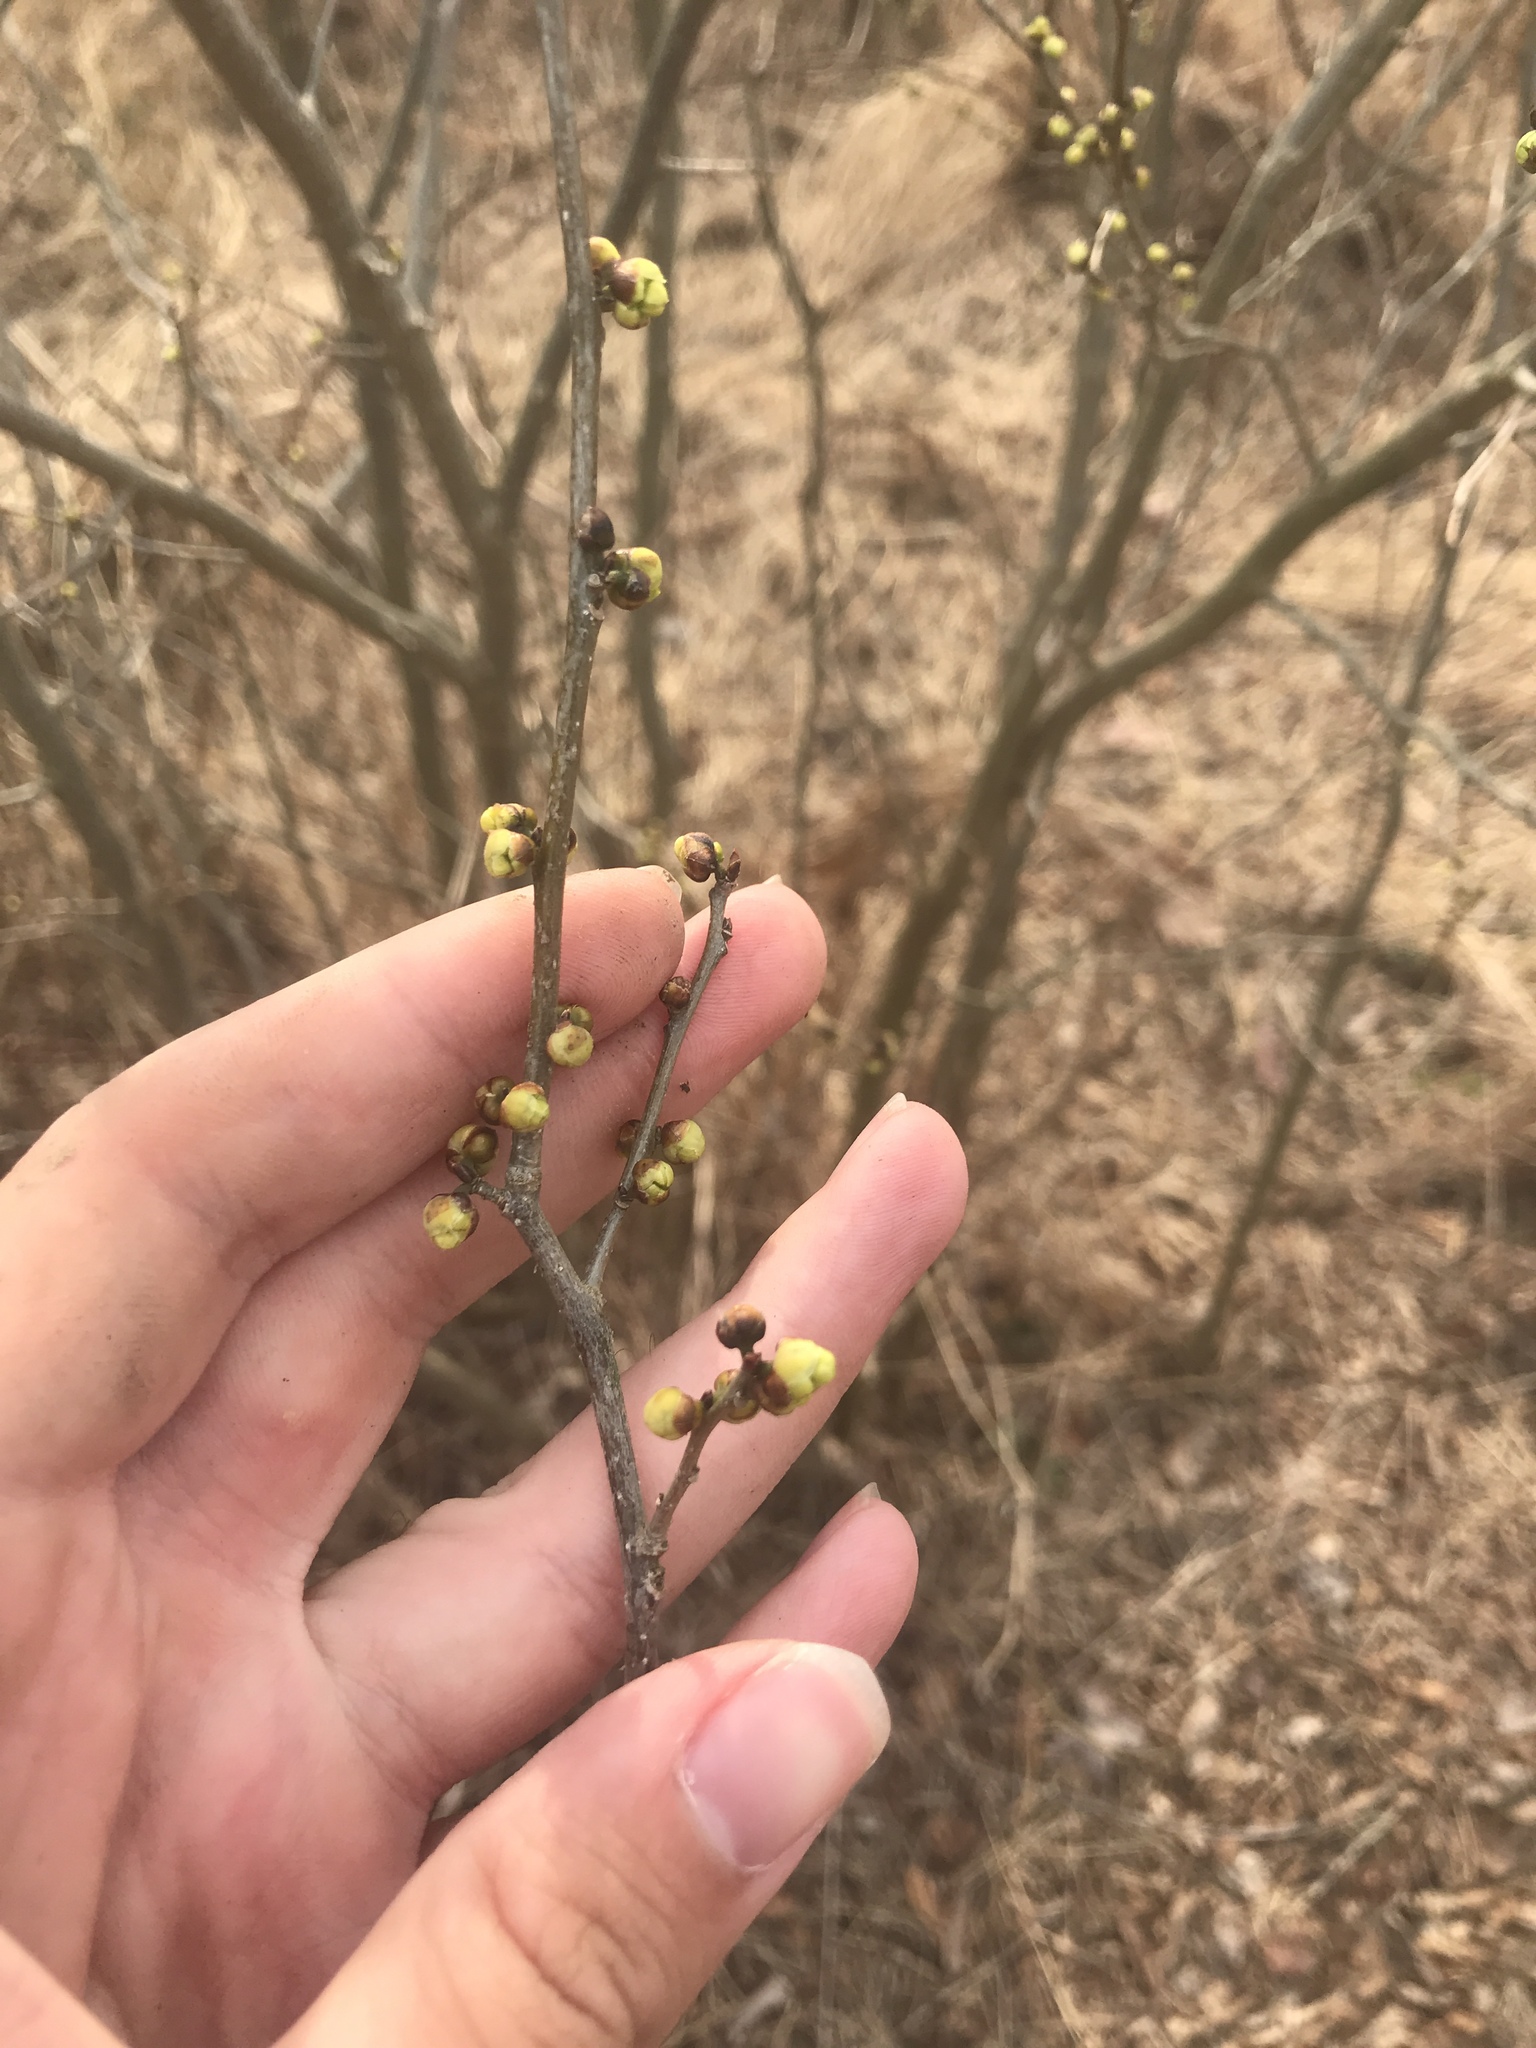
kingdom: Plantae
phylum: Tracheophyta
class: Magnoliopsida
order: Laurales
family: Lauraceae
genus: Lindera
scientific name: Lindera benzoin
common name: Spicebush
